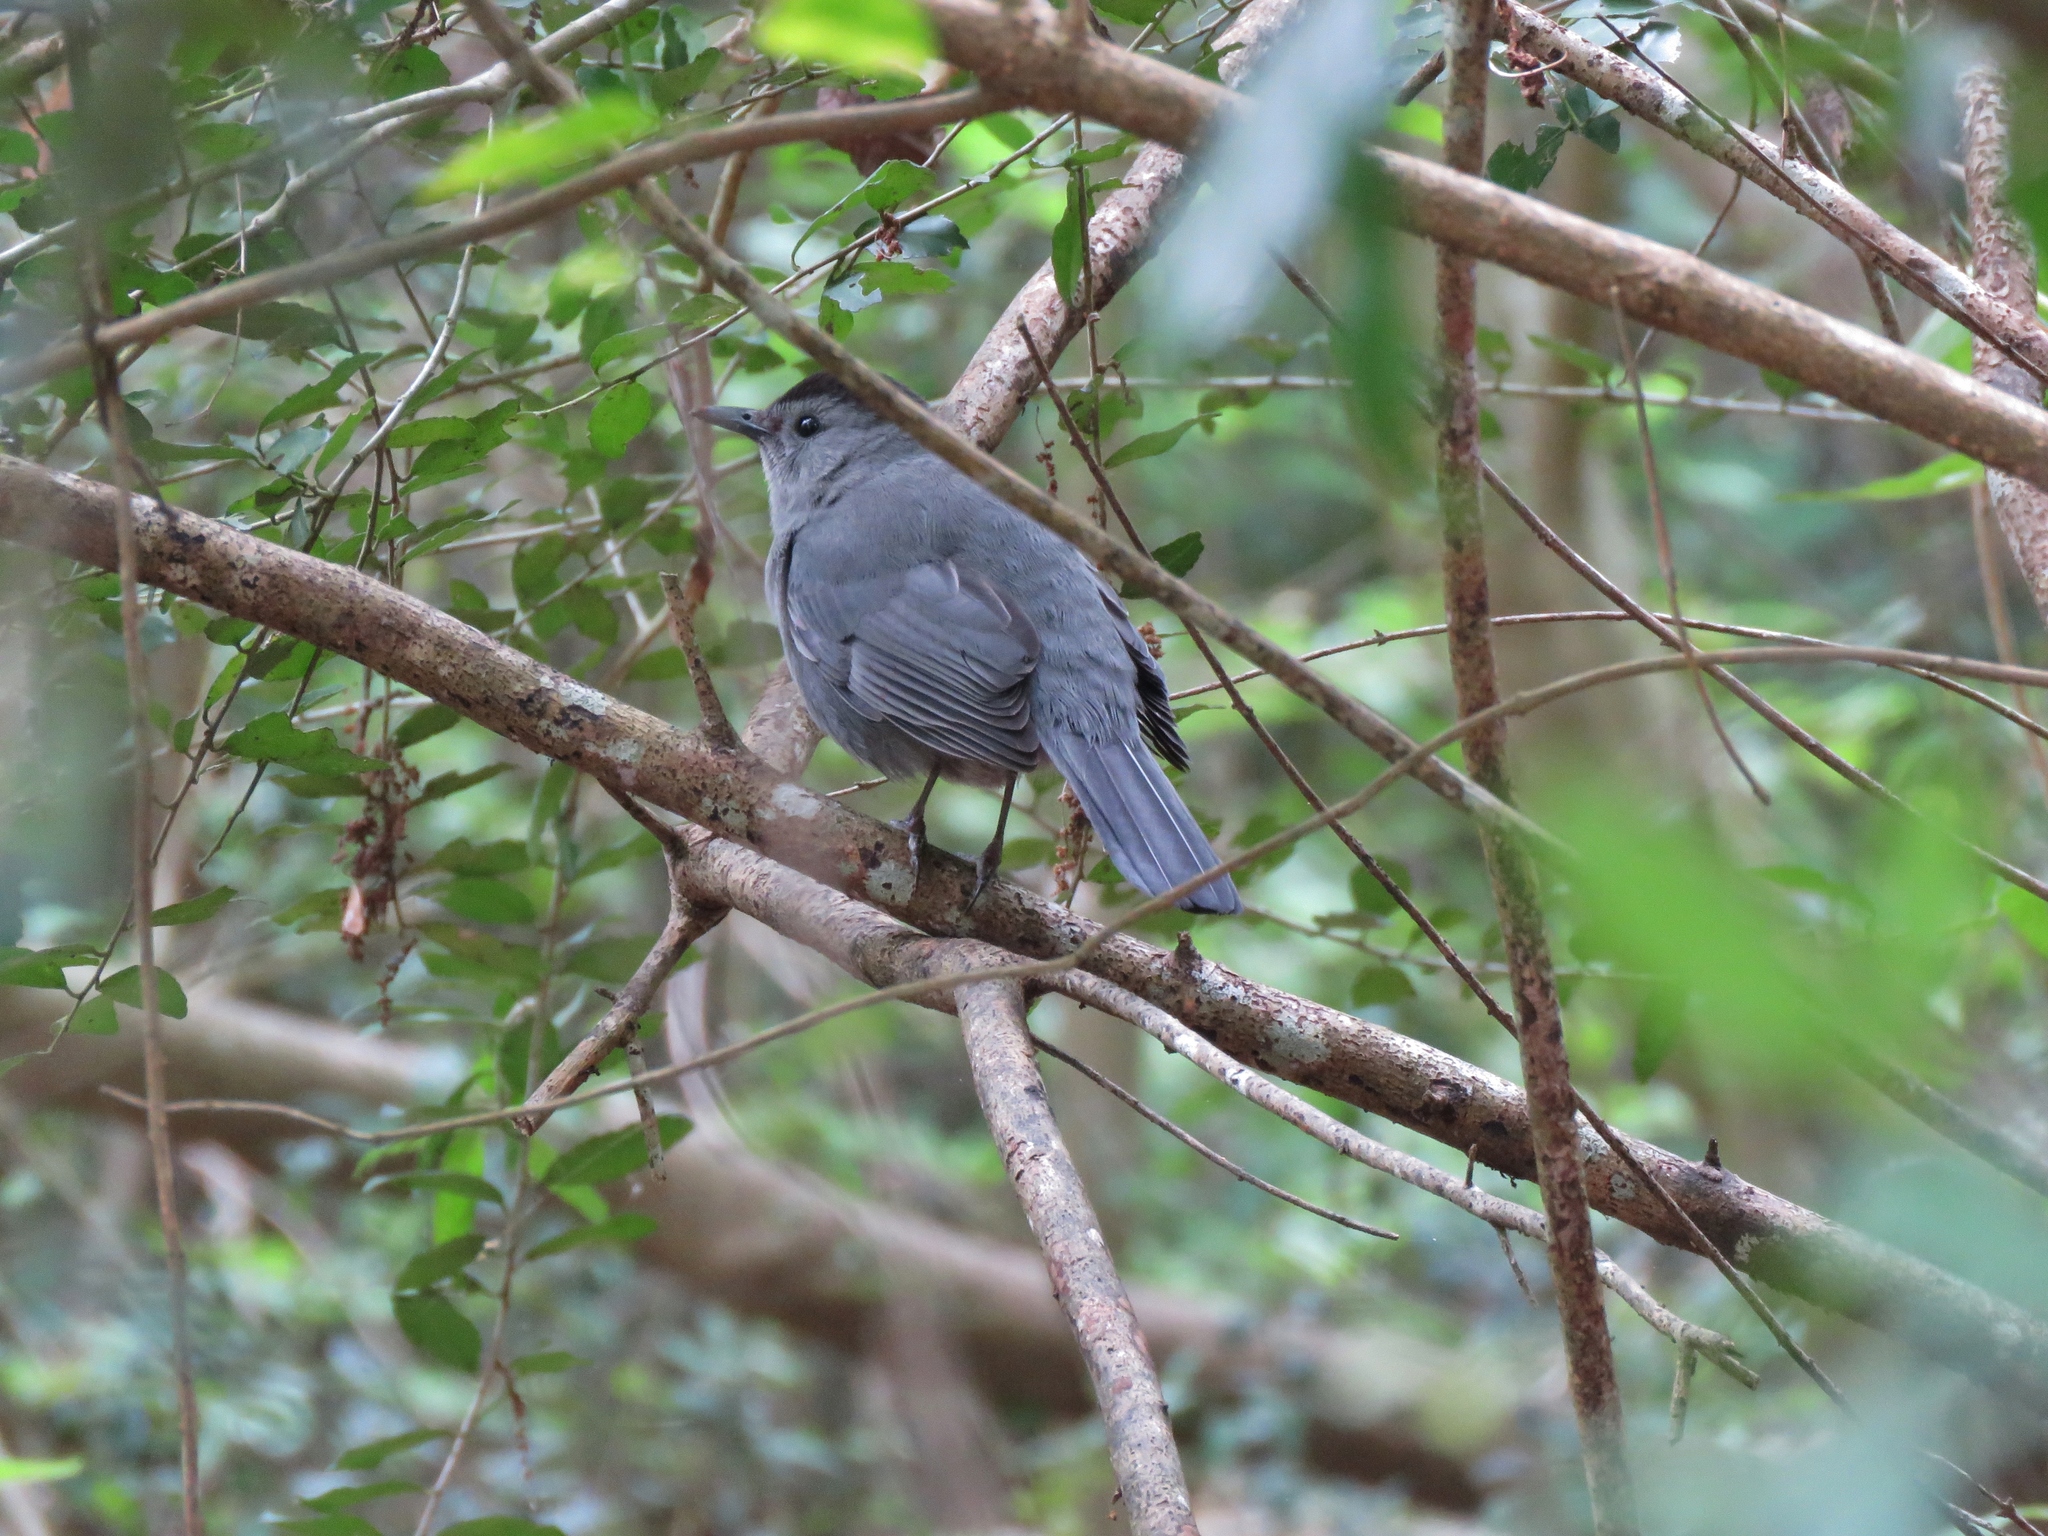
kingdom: Animalia
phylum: Chordata
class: Aves
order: Passeriformes
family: Mimidae
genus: Dumetella
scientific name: Dumetella carolinensis
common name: Gray catbird
